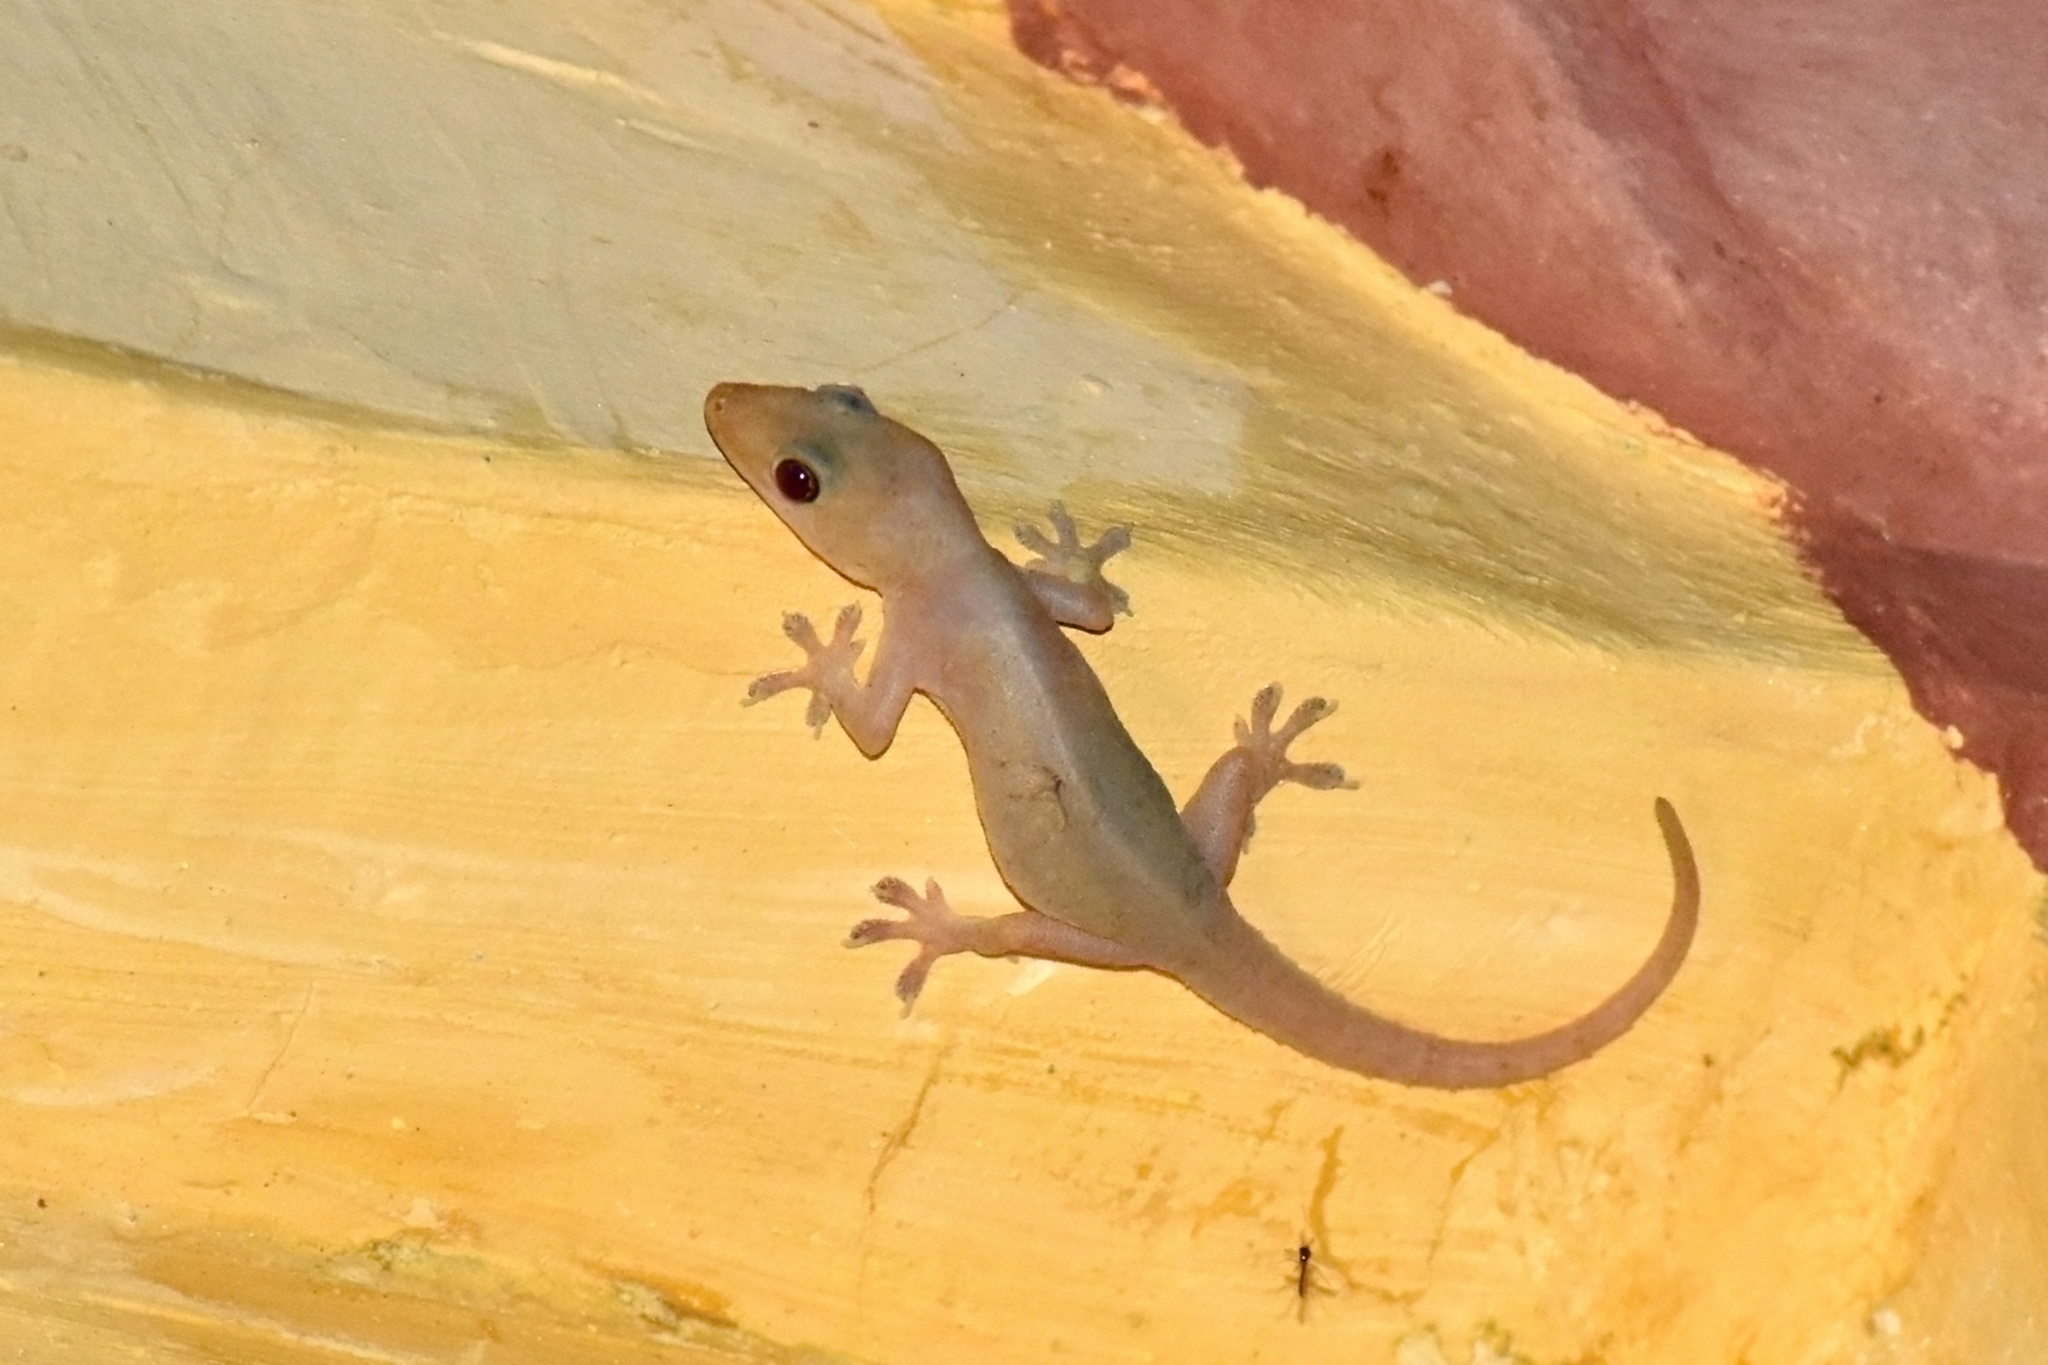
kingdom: Animalia
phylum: Chordata
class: Squamata
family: Gekkonidae
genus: Hemidactylus
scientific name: Hemidactylus frenatus
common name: Common house gecko
